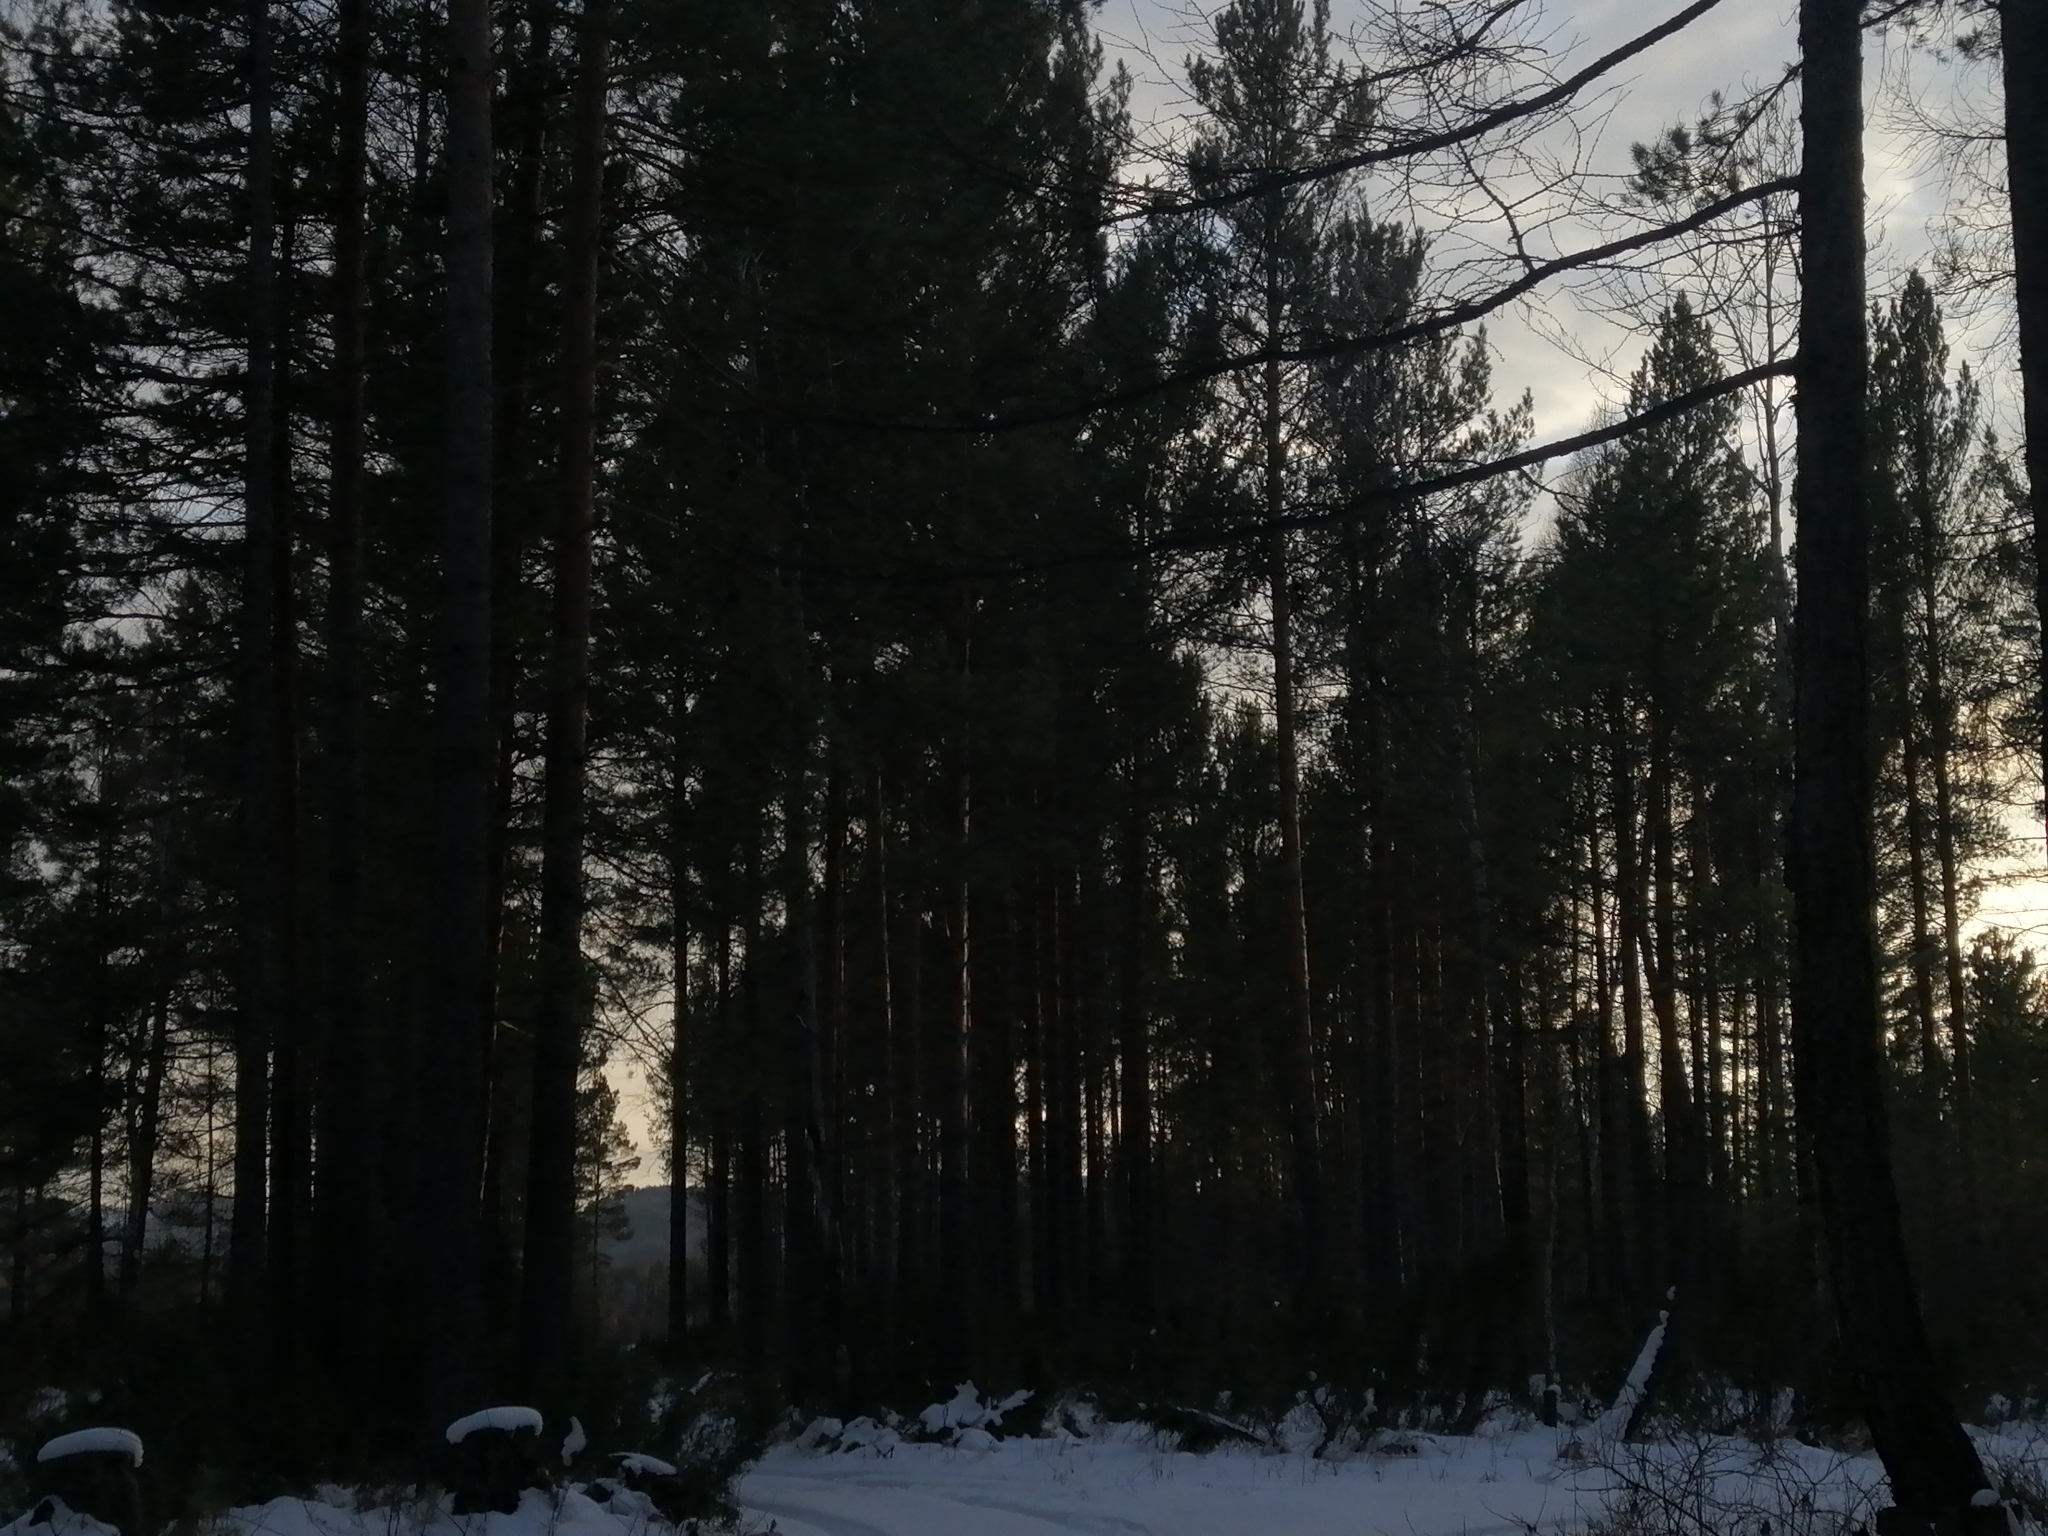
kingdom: Plantae
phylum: Tracheophyta
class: Pinopsida
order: Pinales
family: Pinaceae
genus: Pinus
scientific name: Pinus sylvestris
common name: Scots pine
